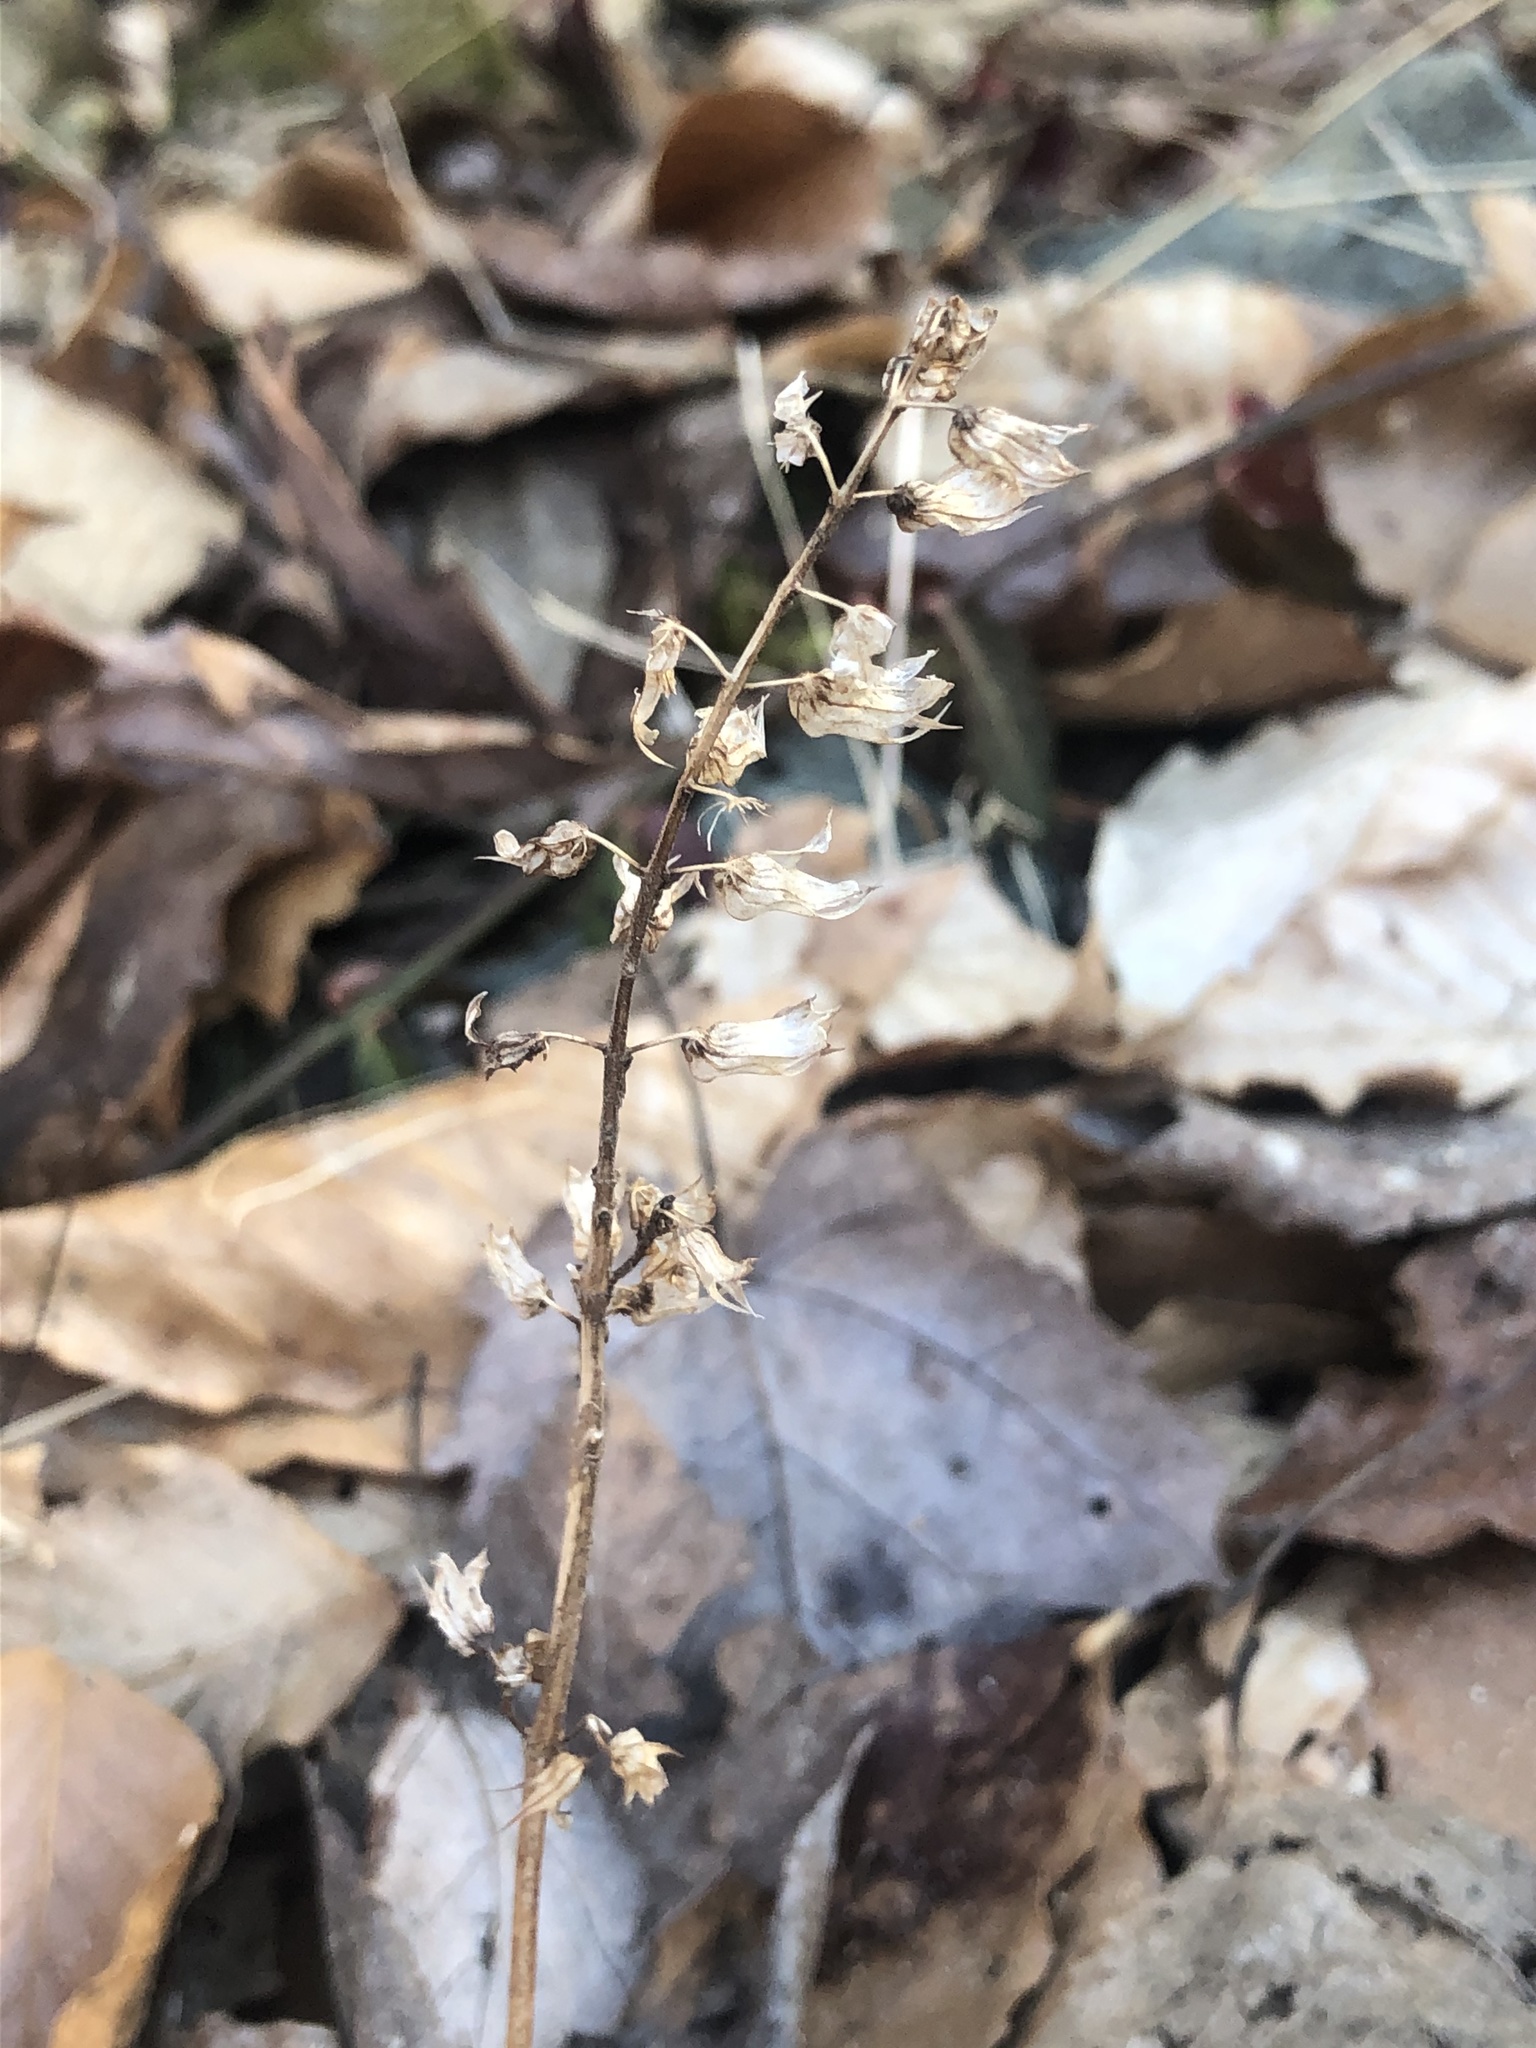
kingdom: Plantae
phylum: Tracheophyta
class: Magnoliopsida
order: Lamiales
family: Lamiaceae
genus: Perilla
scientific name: Perilla frutescens
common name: Perilla
